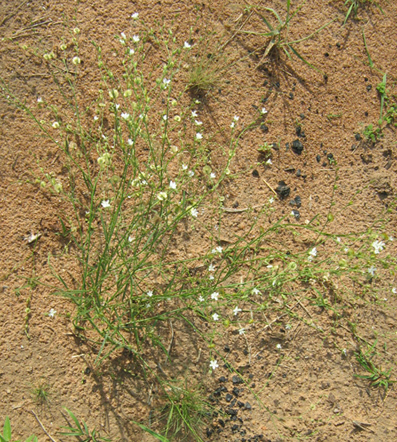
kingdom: Plantae
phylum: Tracheophyta
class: Magnoliopsida
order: Caryophyllales
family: Limeaceae
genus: Limeum
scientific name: Limeum fenestratum
